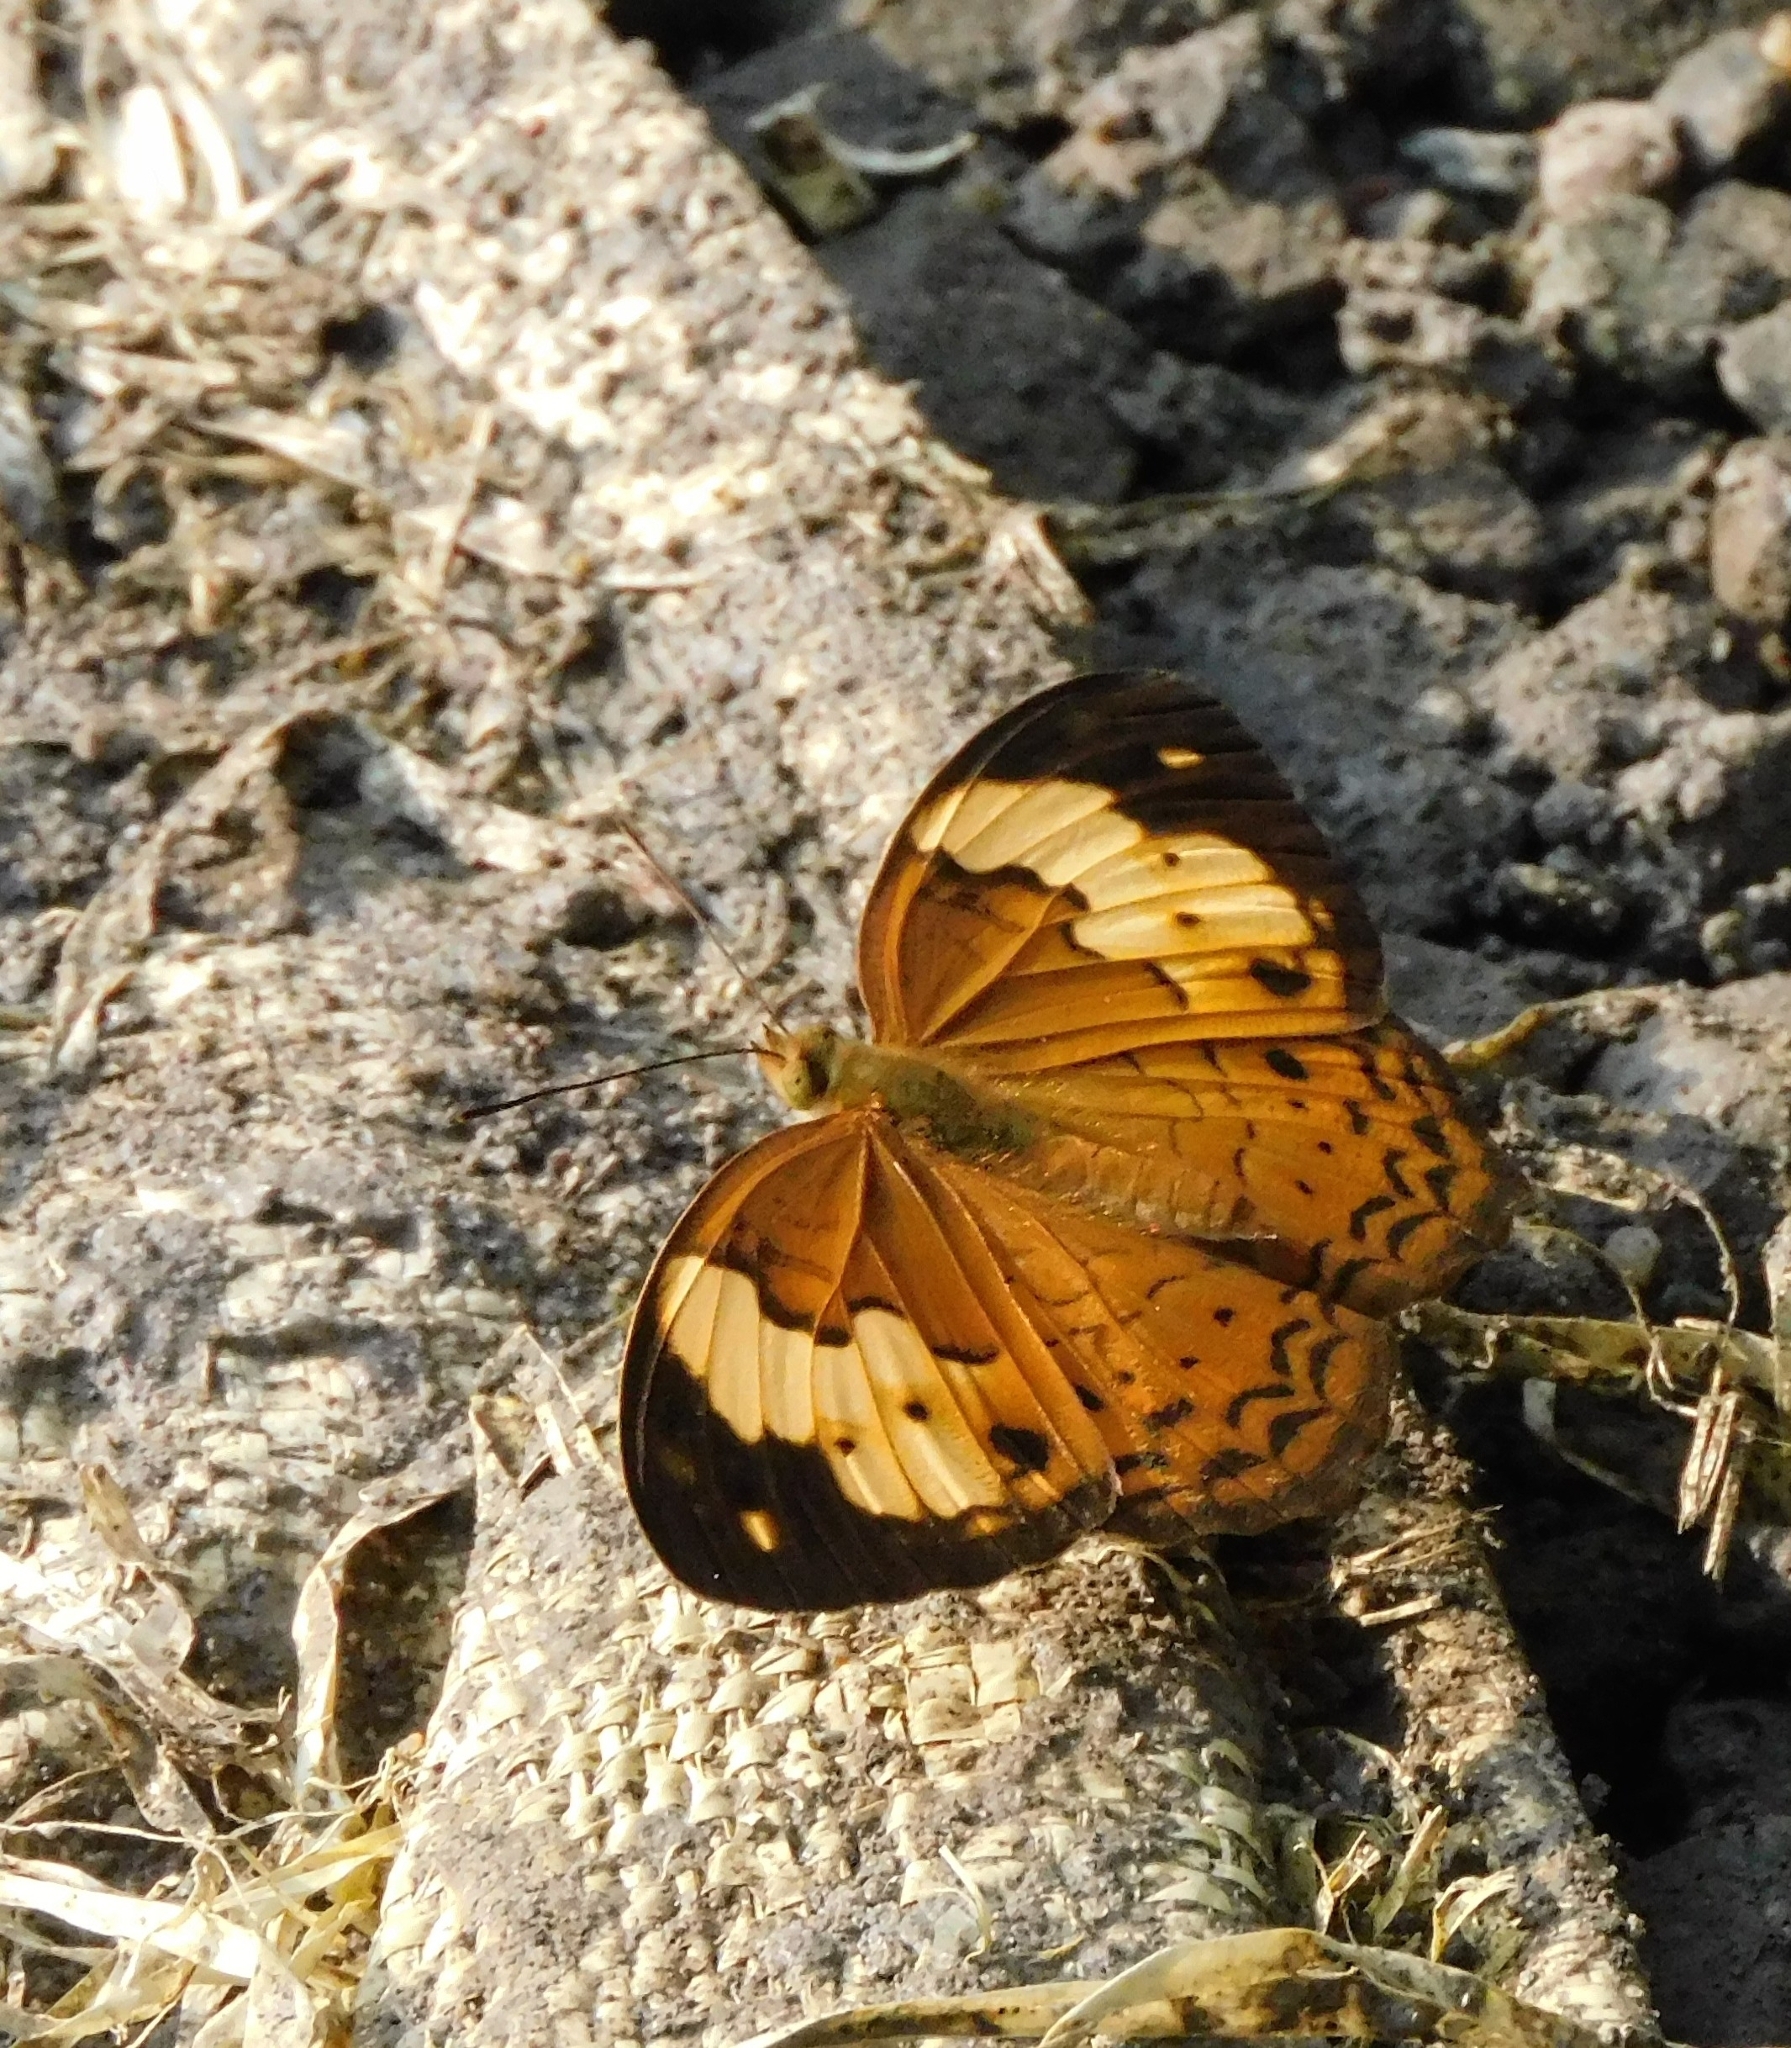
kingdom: Animalia
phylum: Arthropoda
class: Insecta
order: Lepidoptera
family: Nymphalidae
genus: Cupha
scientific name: Cupha erymanthis
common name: Rustic
